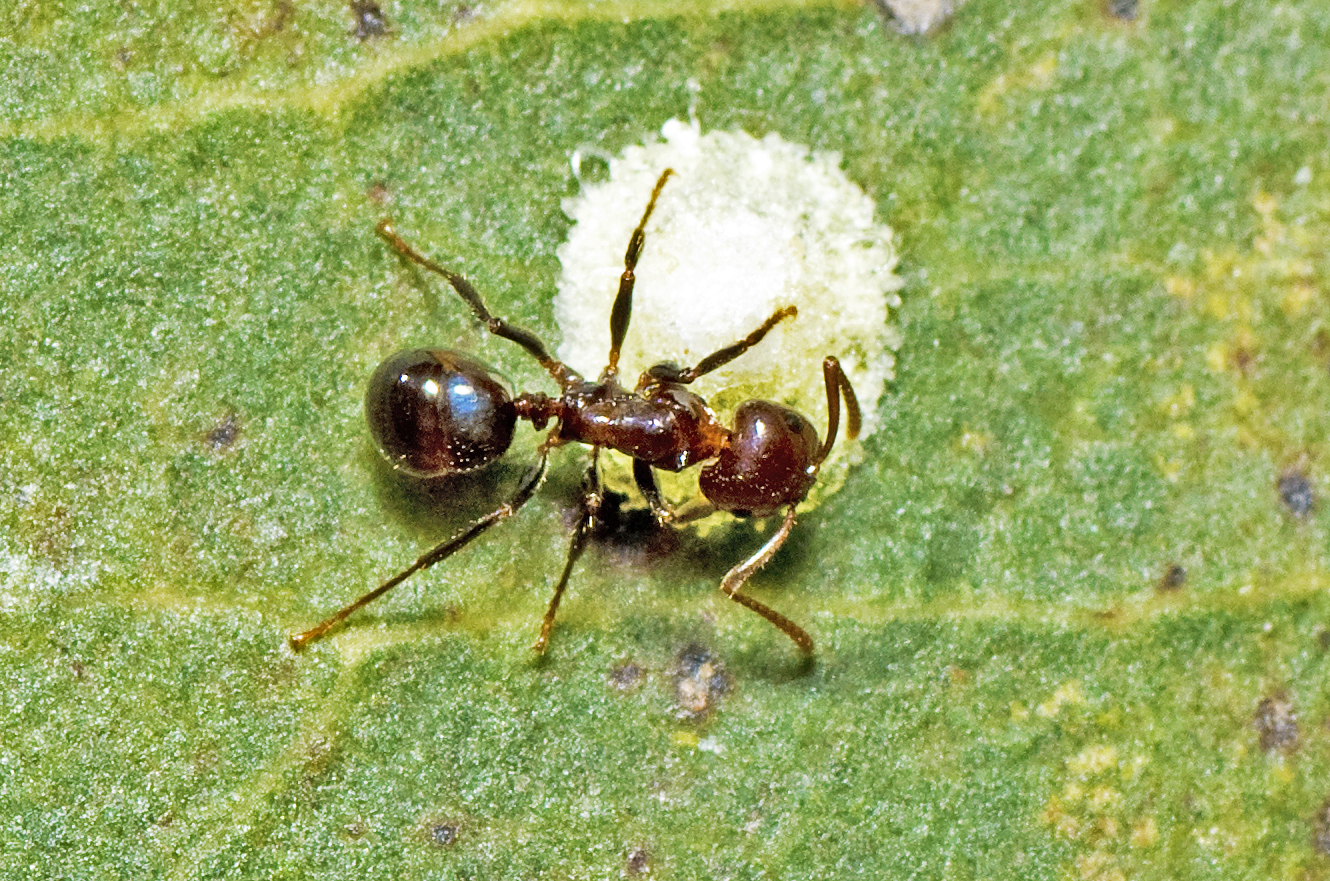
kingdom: Animalia
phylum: Arthropoda
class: Insecta
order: Hymenoptera
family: Formicidae
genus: Notoncus
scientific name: Notoncus gilberti
